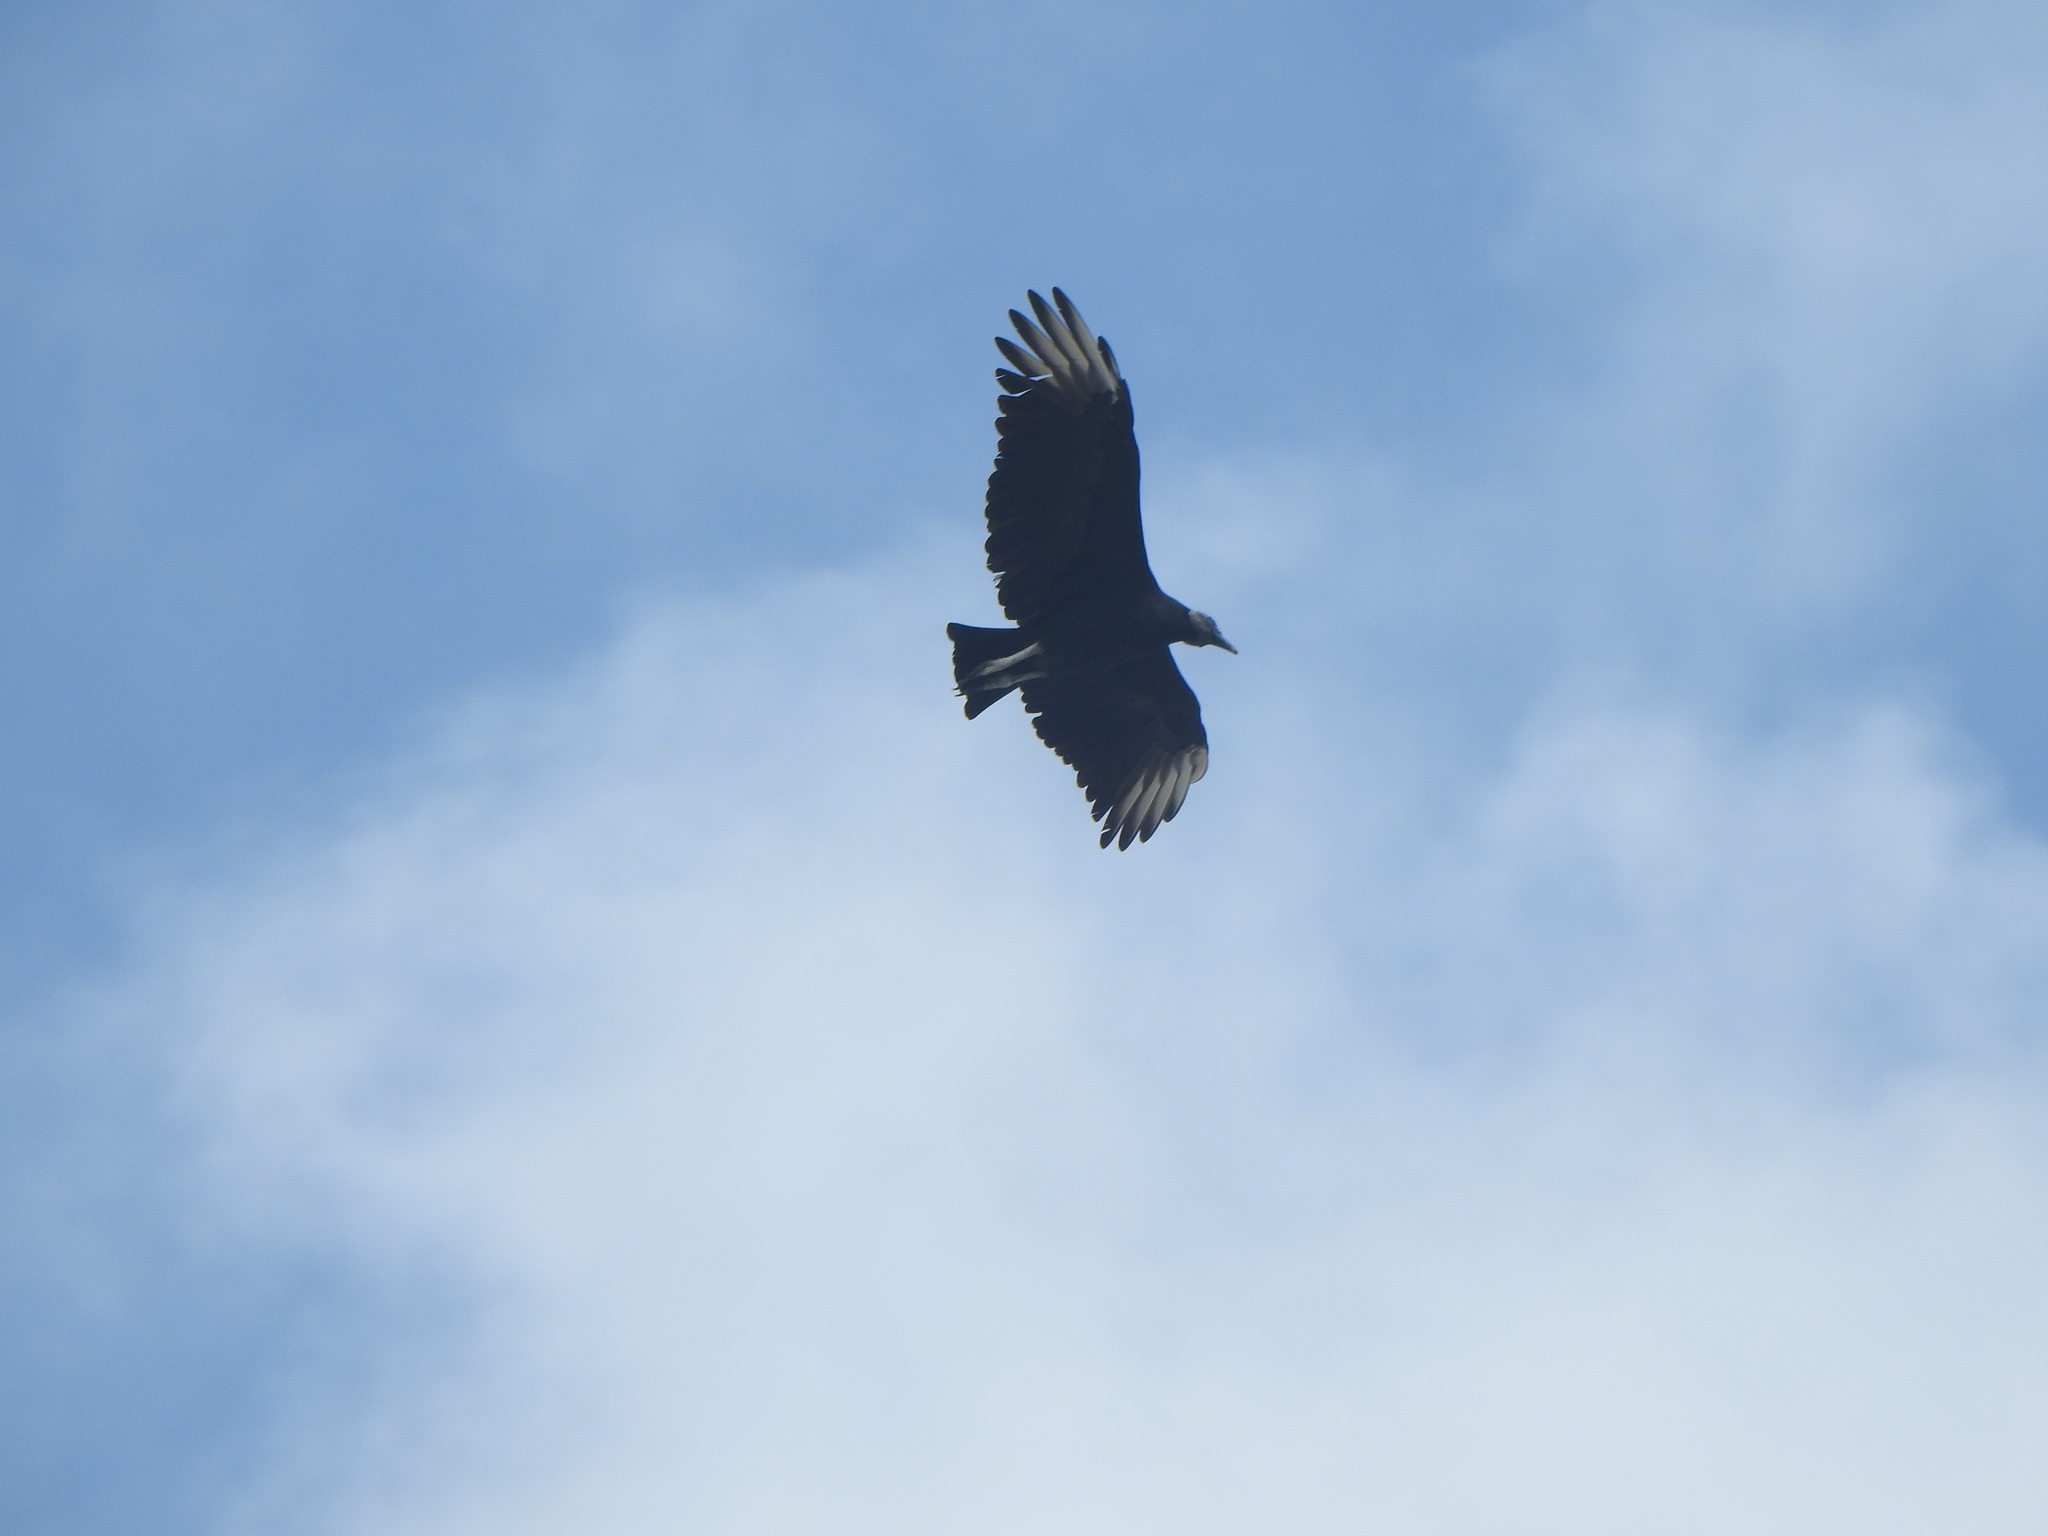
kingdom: Animalia
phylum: Chordata
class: Aves
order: Accipitriformes
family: Cathartidae
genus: Coragyps
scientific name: Coragyps atratus
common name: Black vulture
